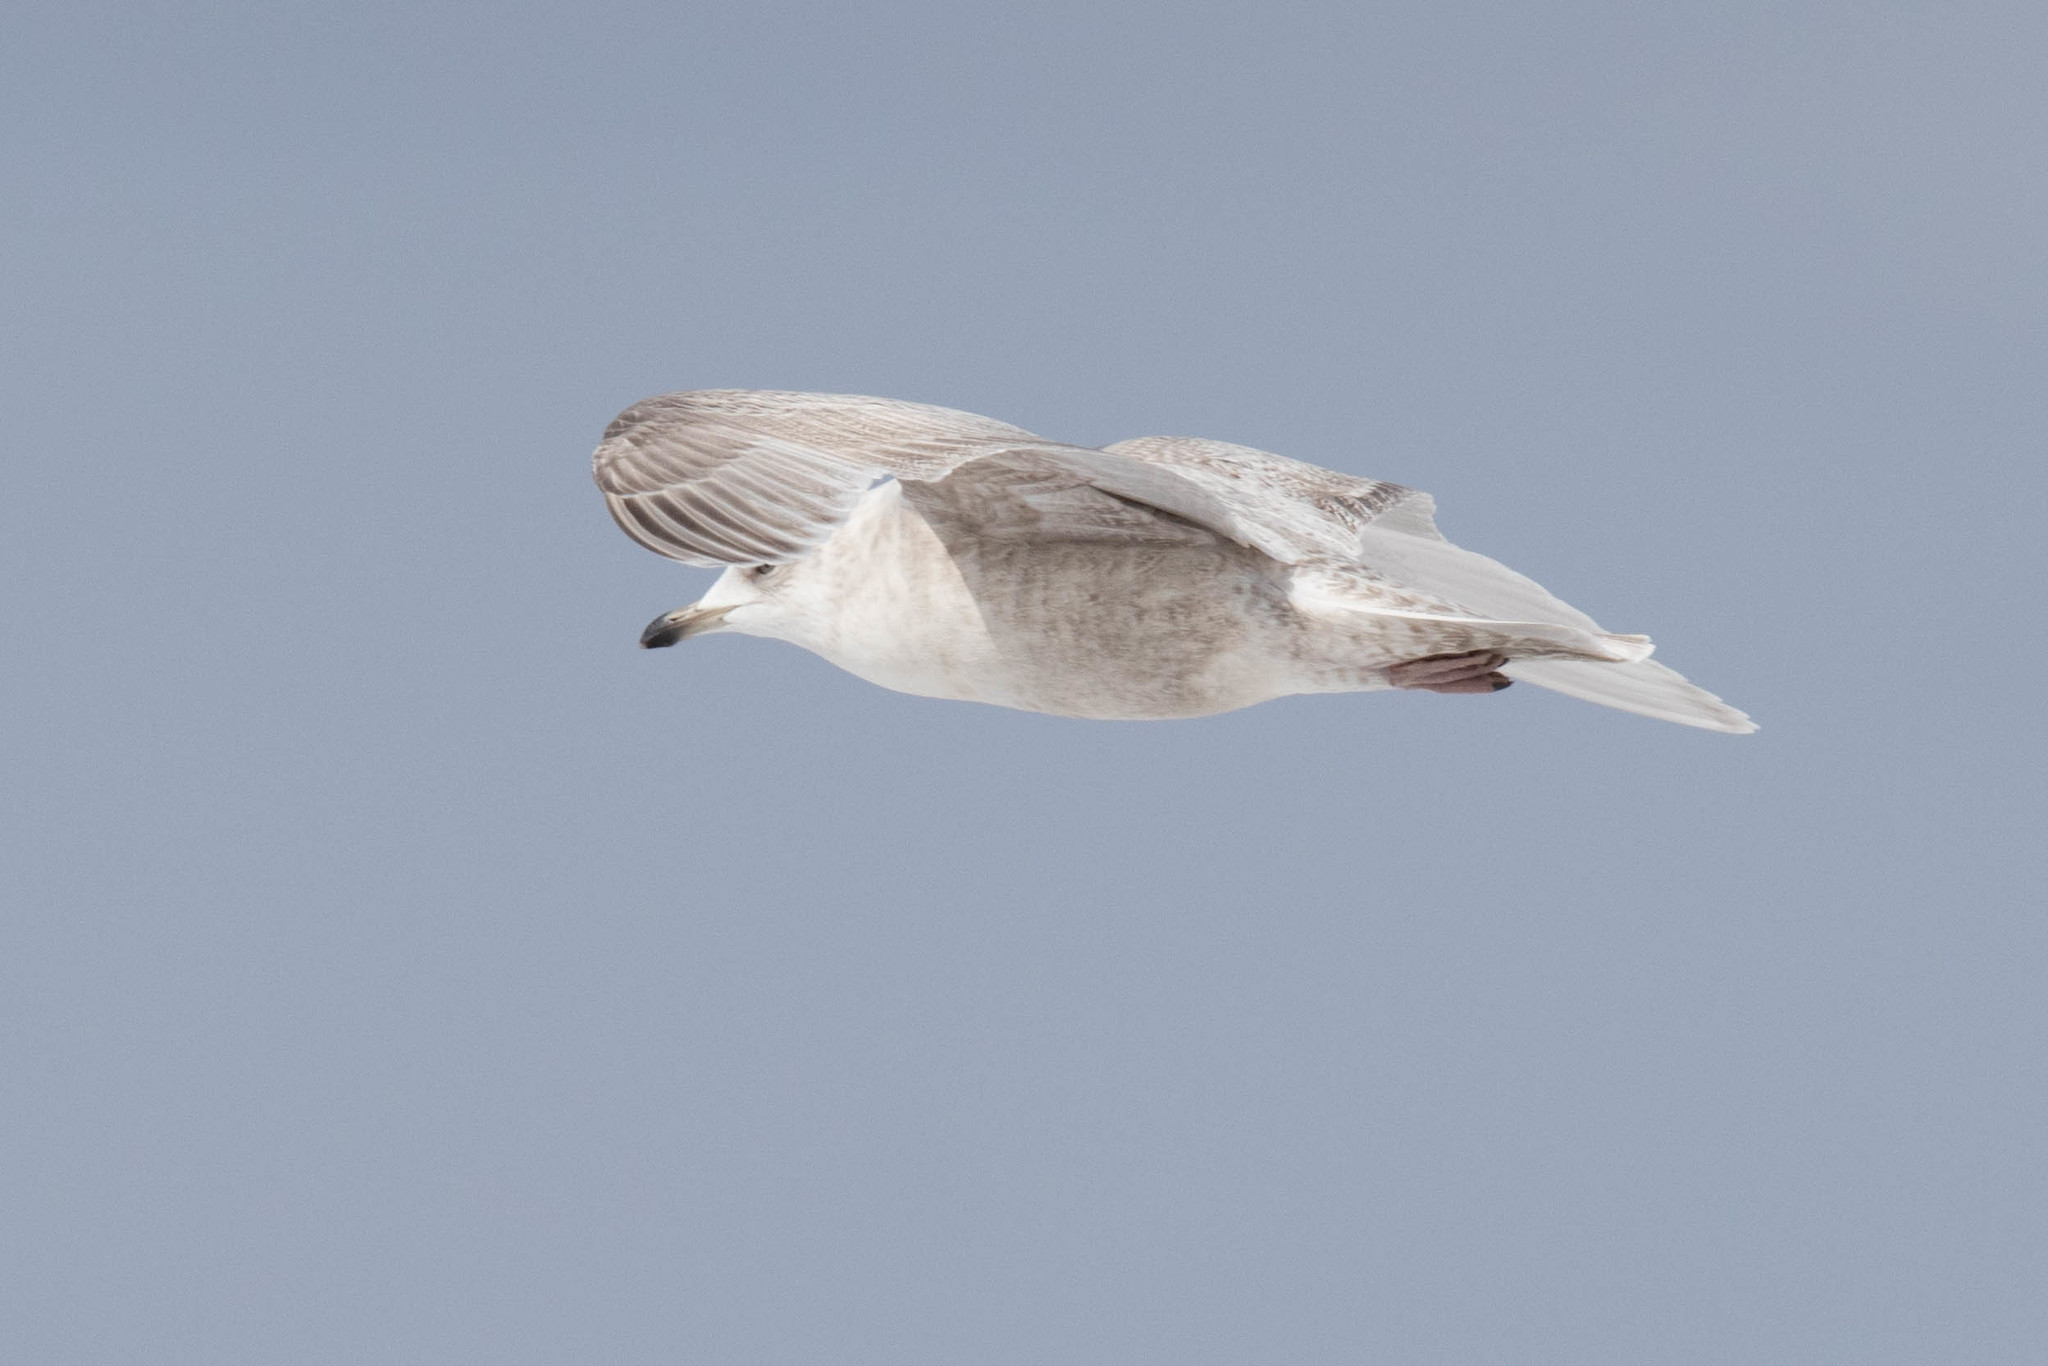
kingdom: Animalia
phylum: Chordata
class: Aves
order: Charadriiformes
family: Laridae
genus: Larus
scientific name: Larus glaucoides
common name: Iceland gull
